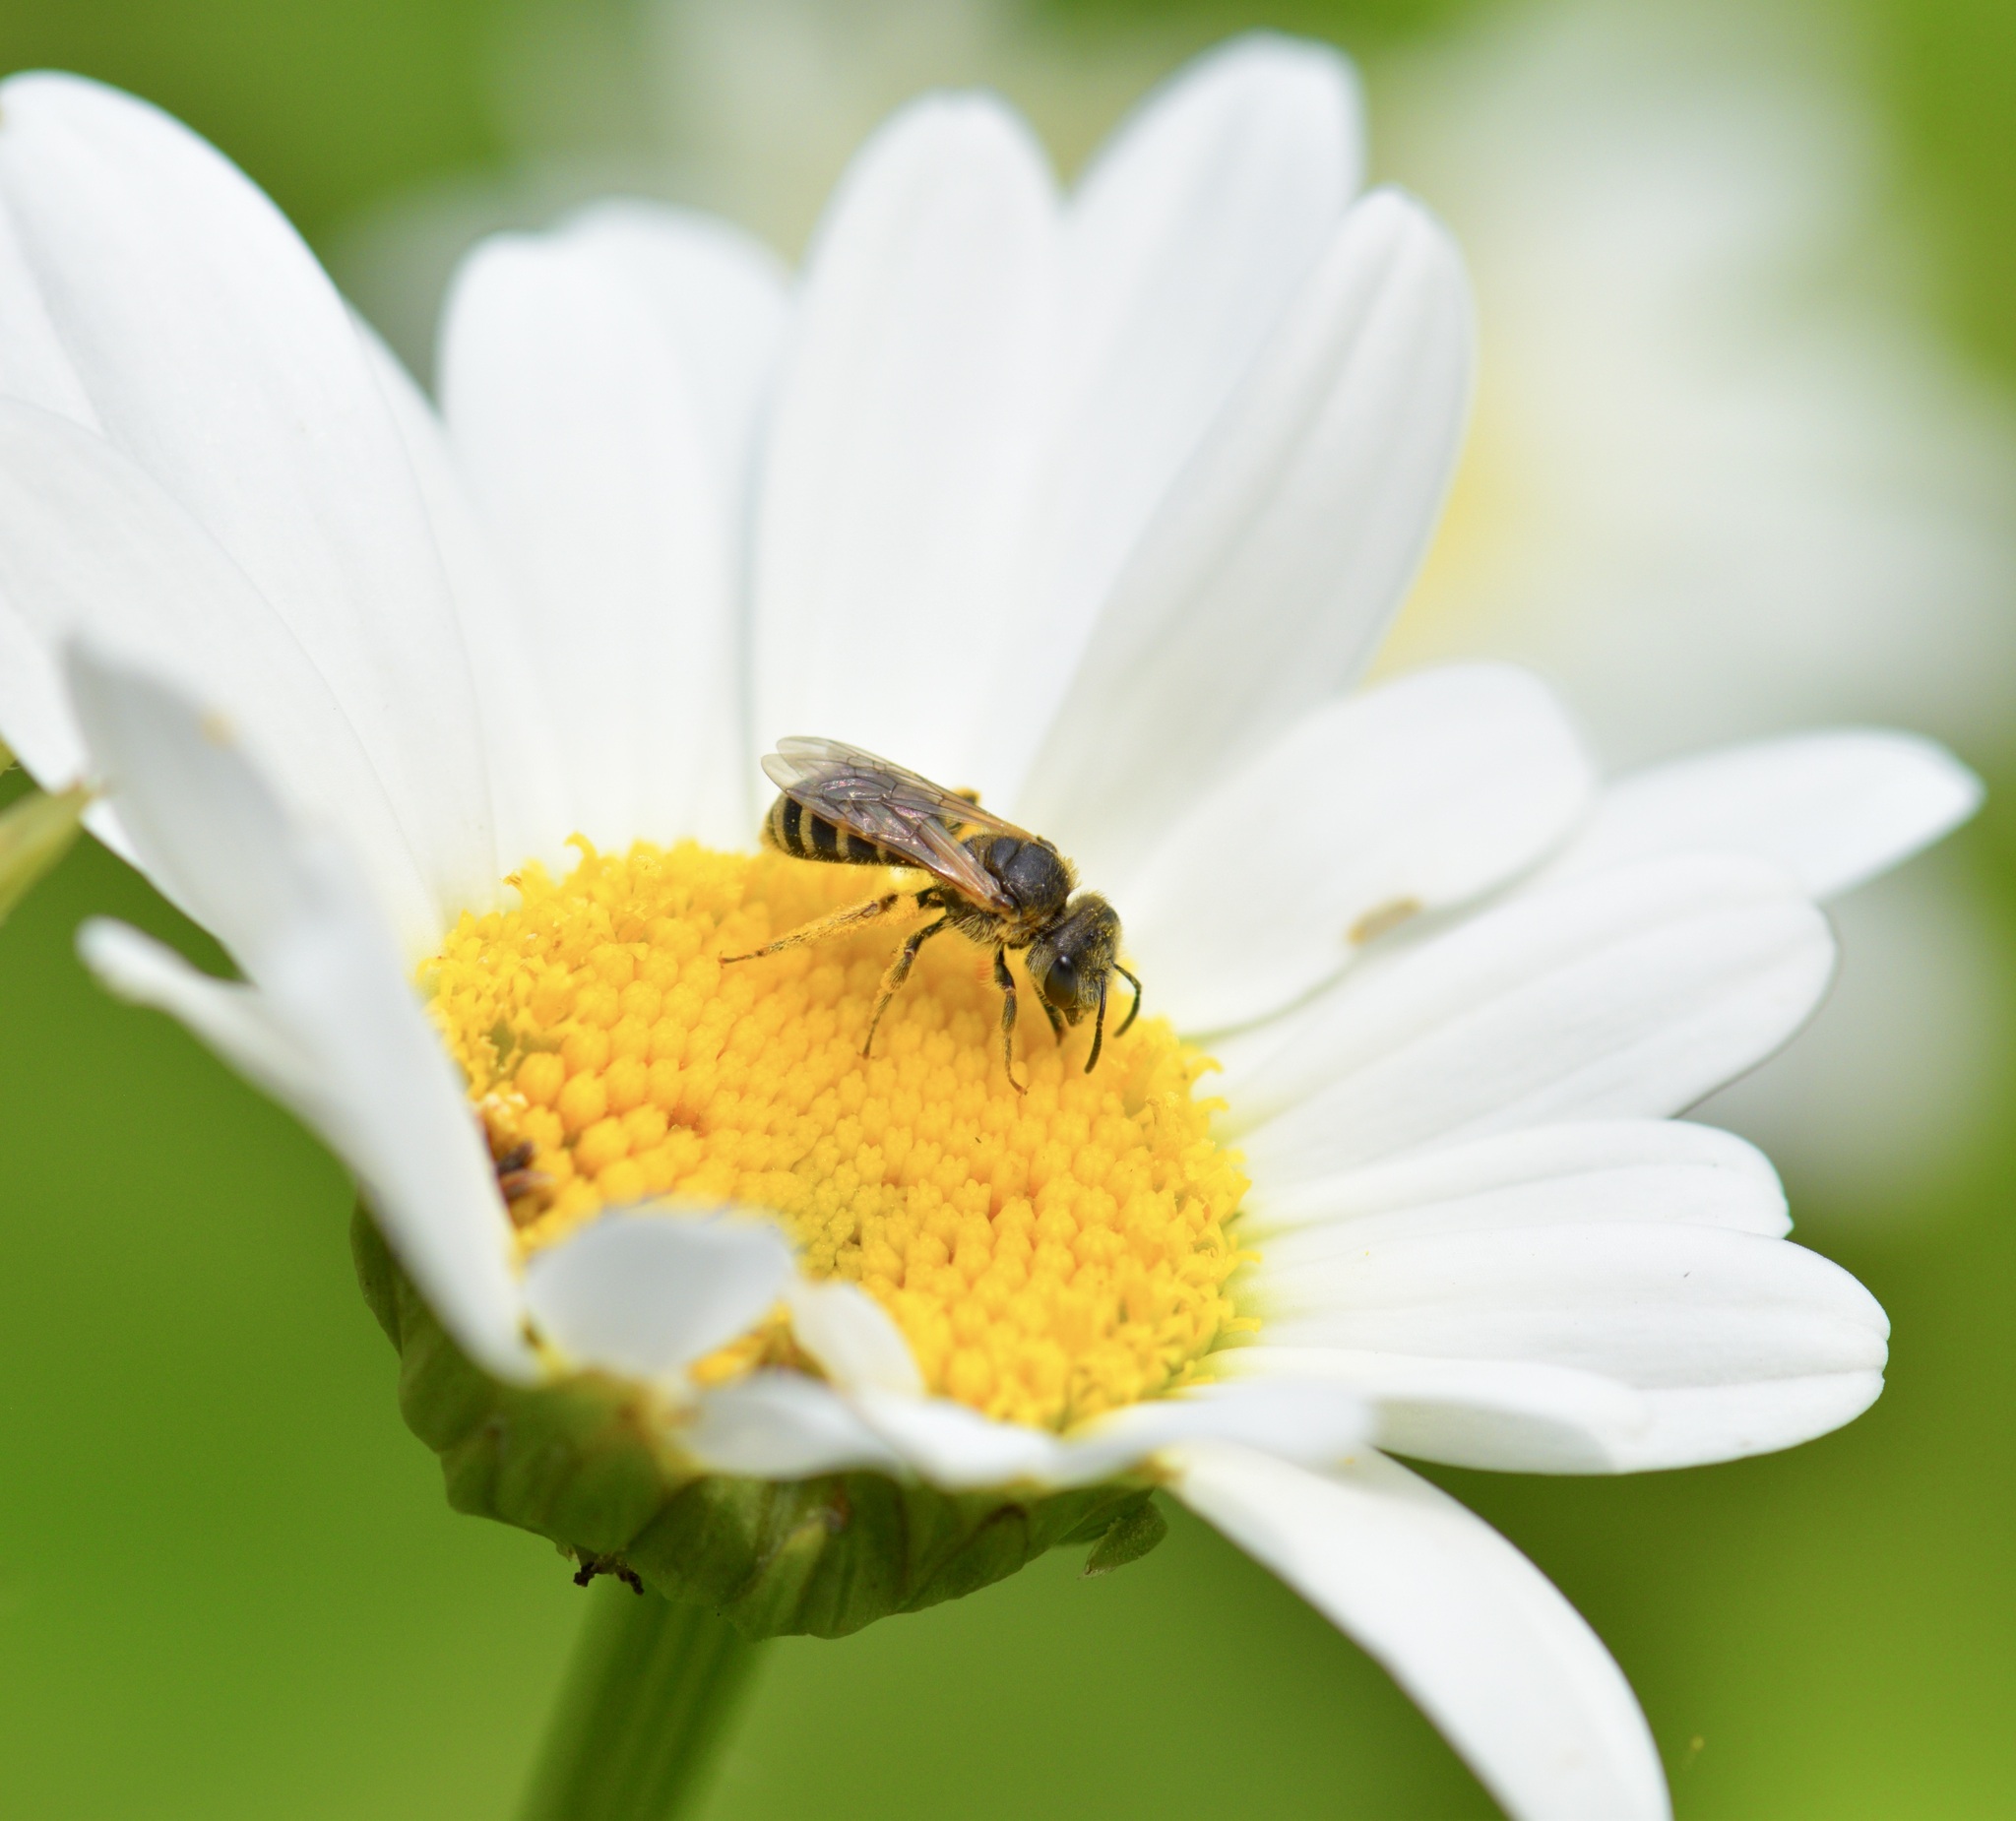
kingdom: Animalia
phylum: Arthropoda
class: Insecta
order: Hymenoptera
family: Halictidae
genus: Halictus
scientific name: Halictus ligatus
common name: Ligated furrow bee
